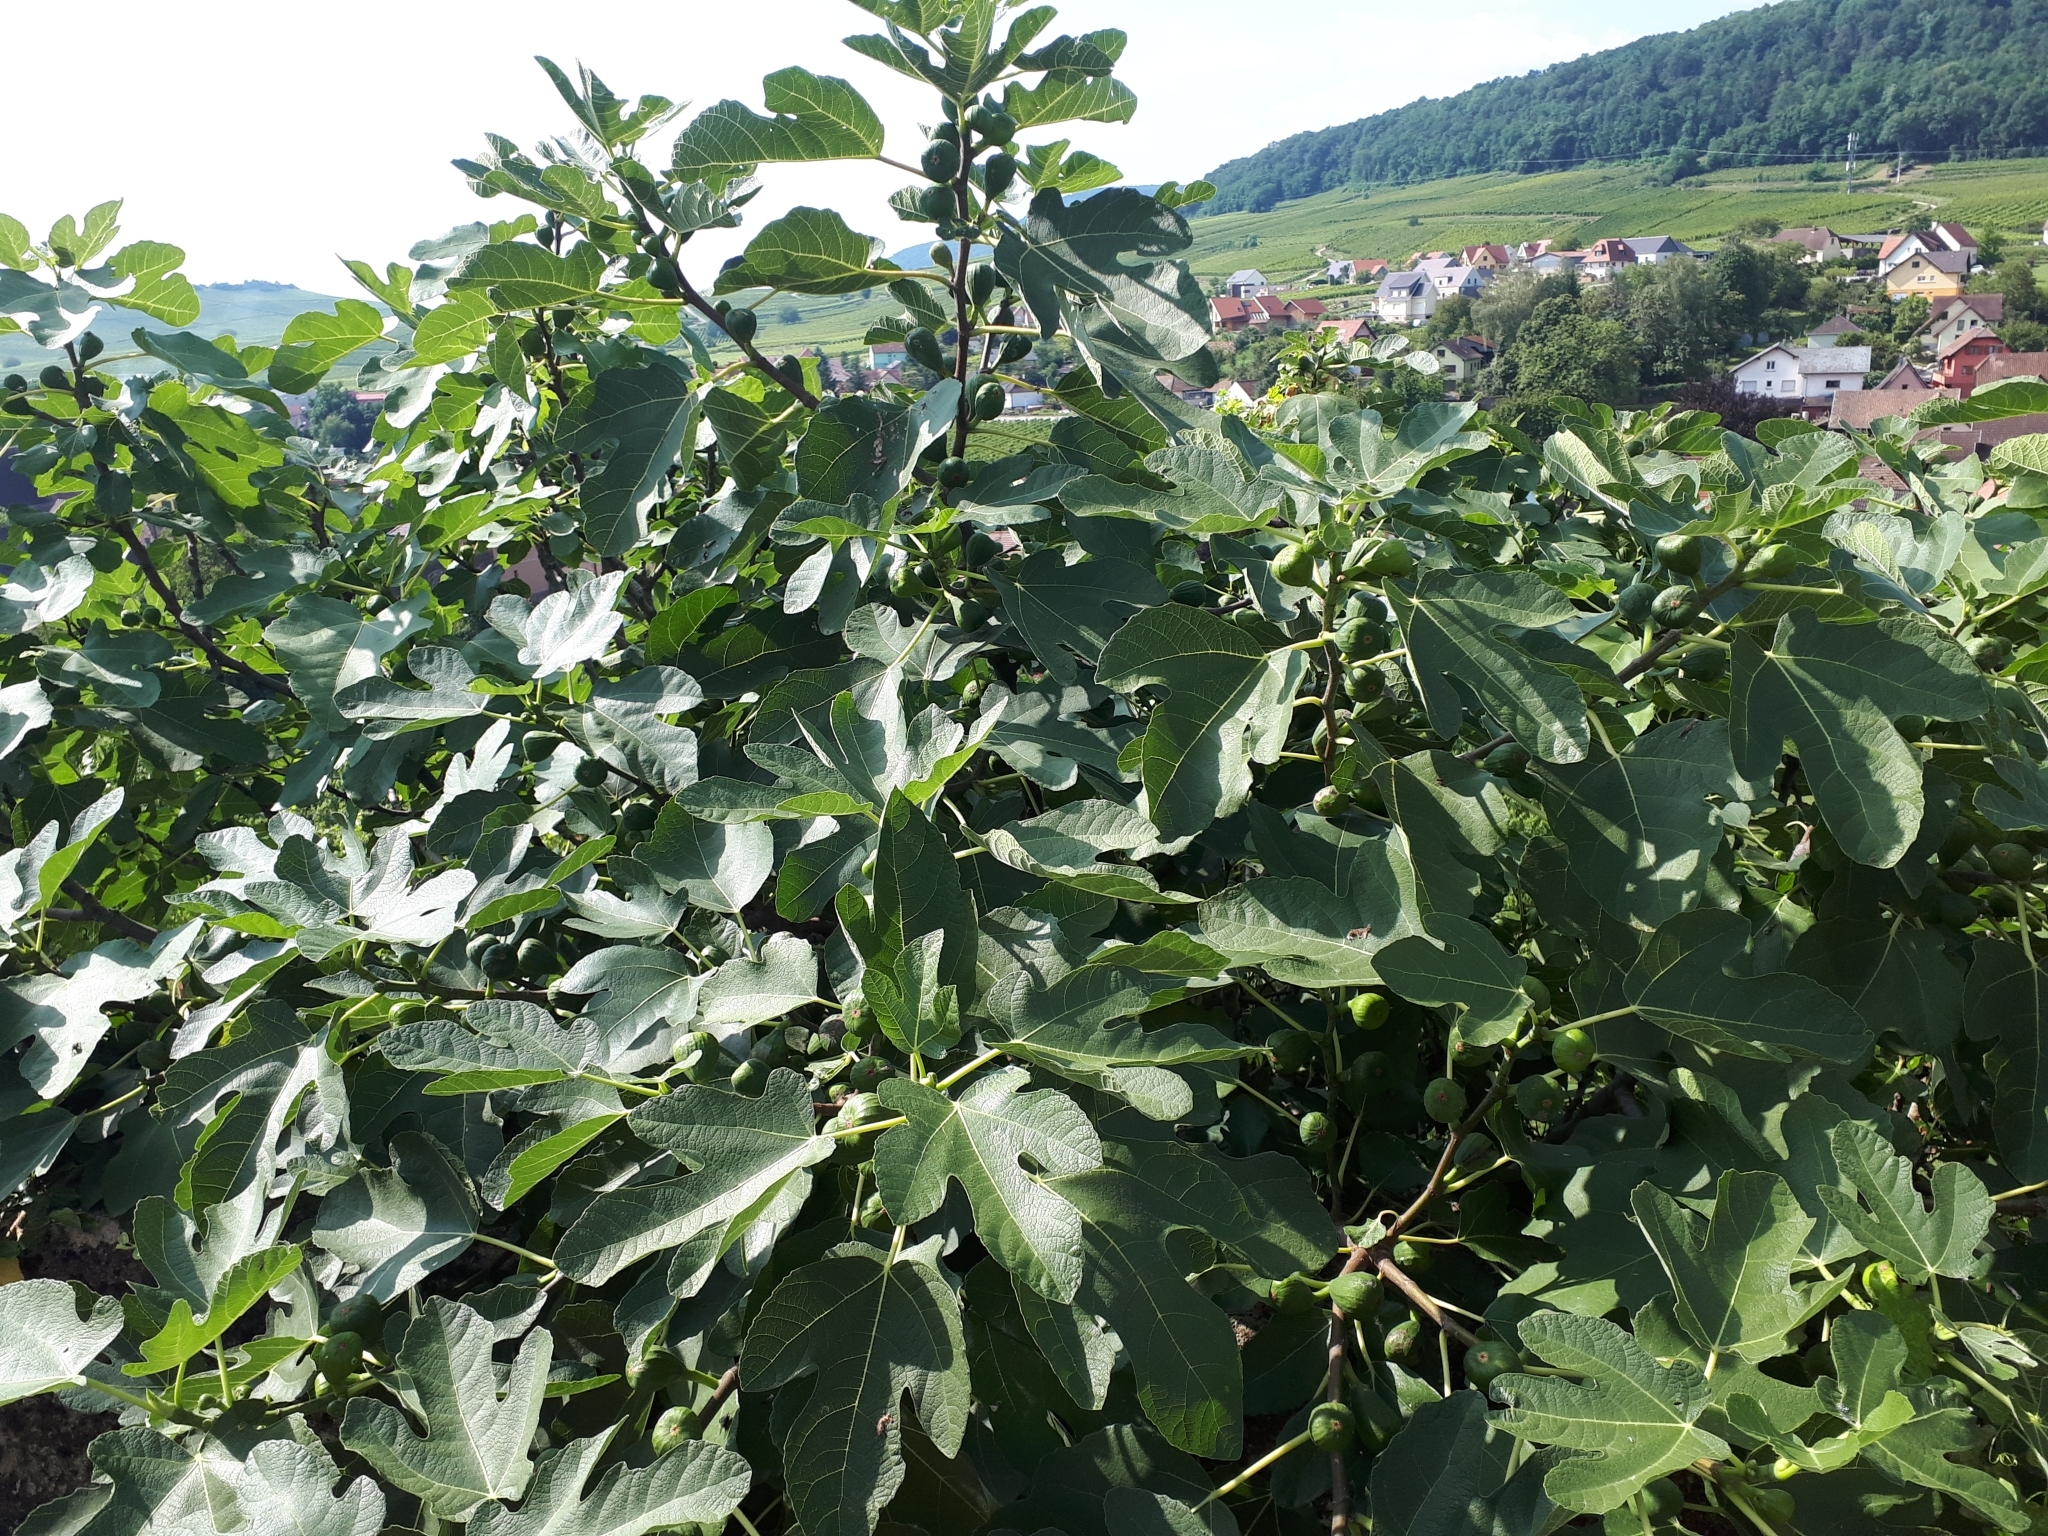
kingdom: Plantae
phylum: Tracheophyta
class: Magnoliopsida
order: Rosales
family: Moraceae
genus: Ficus
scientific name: Ficus carica
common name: Fig
